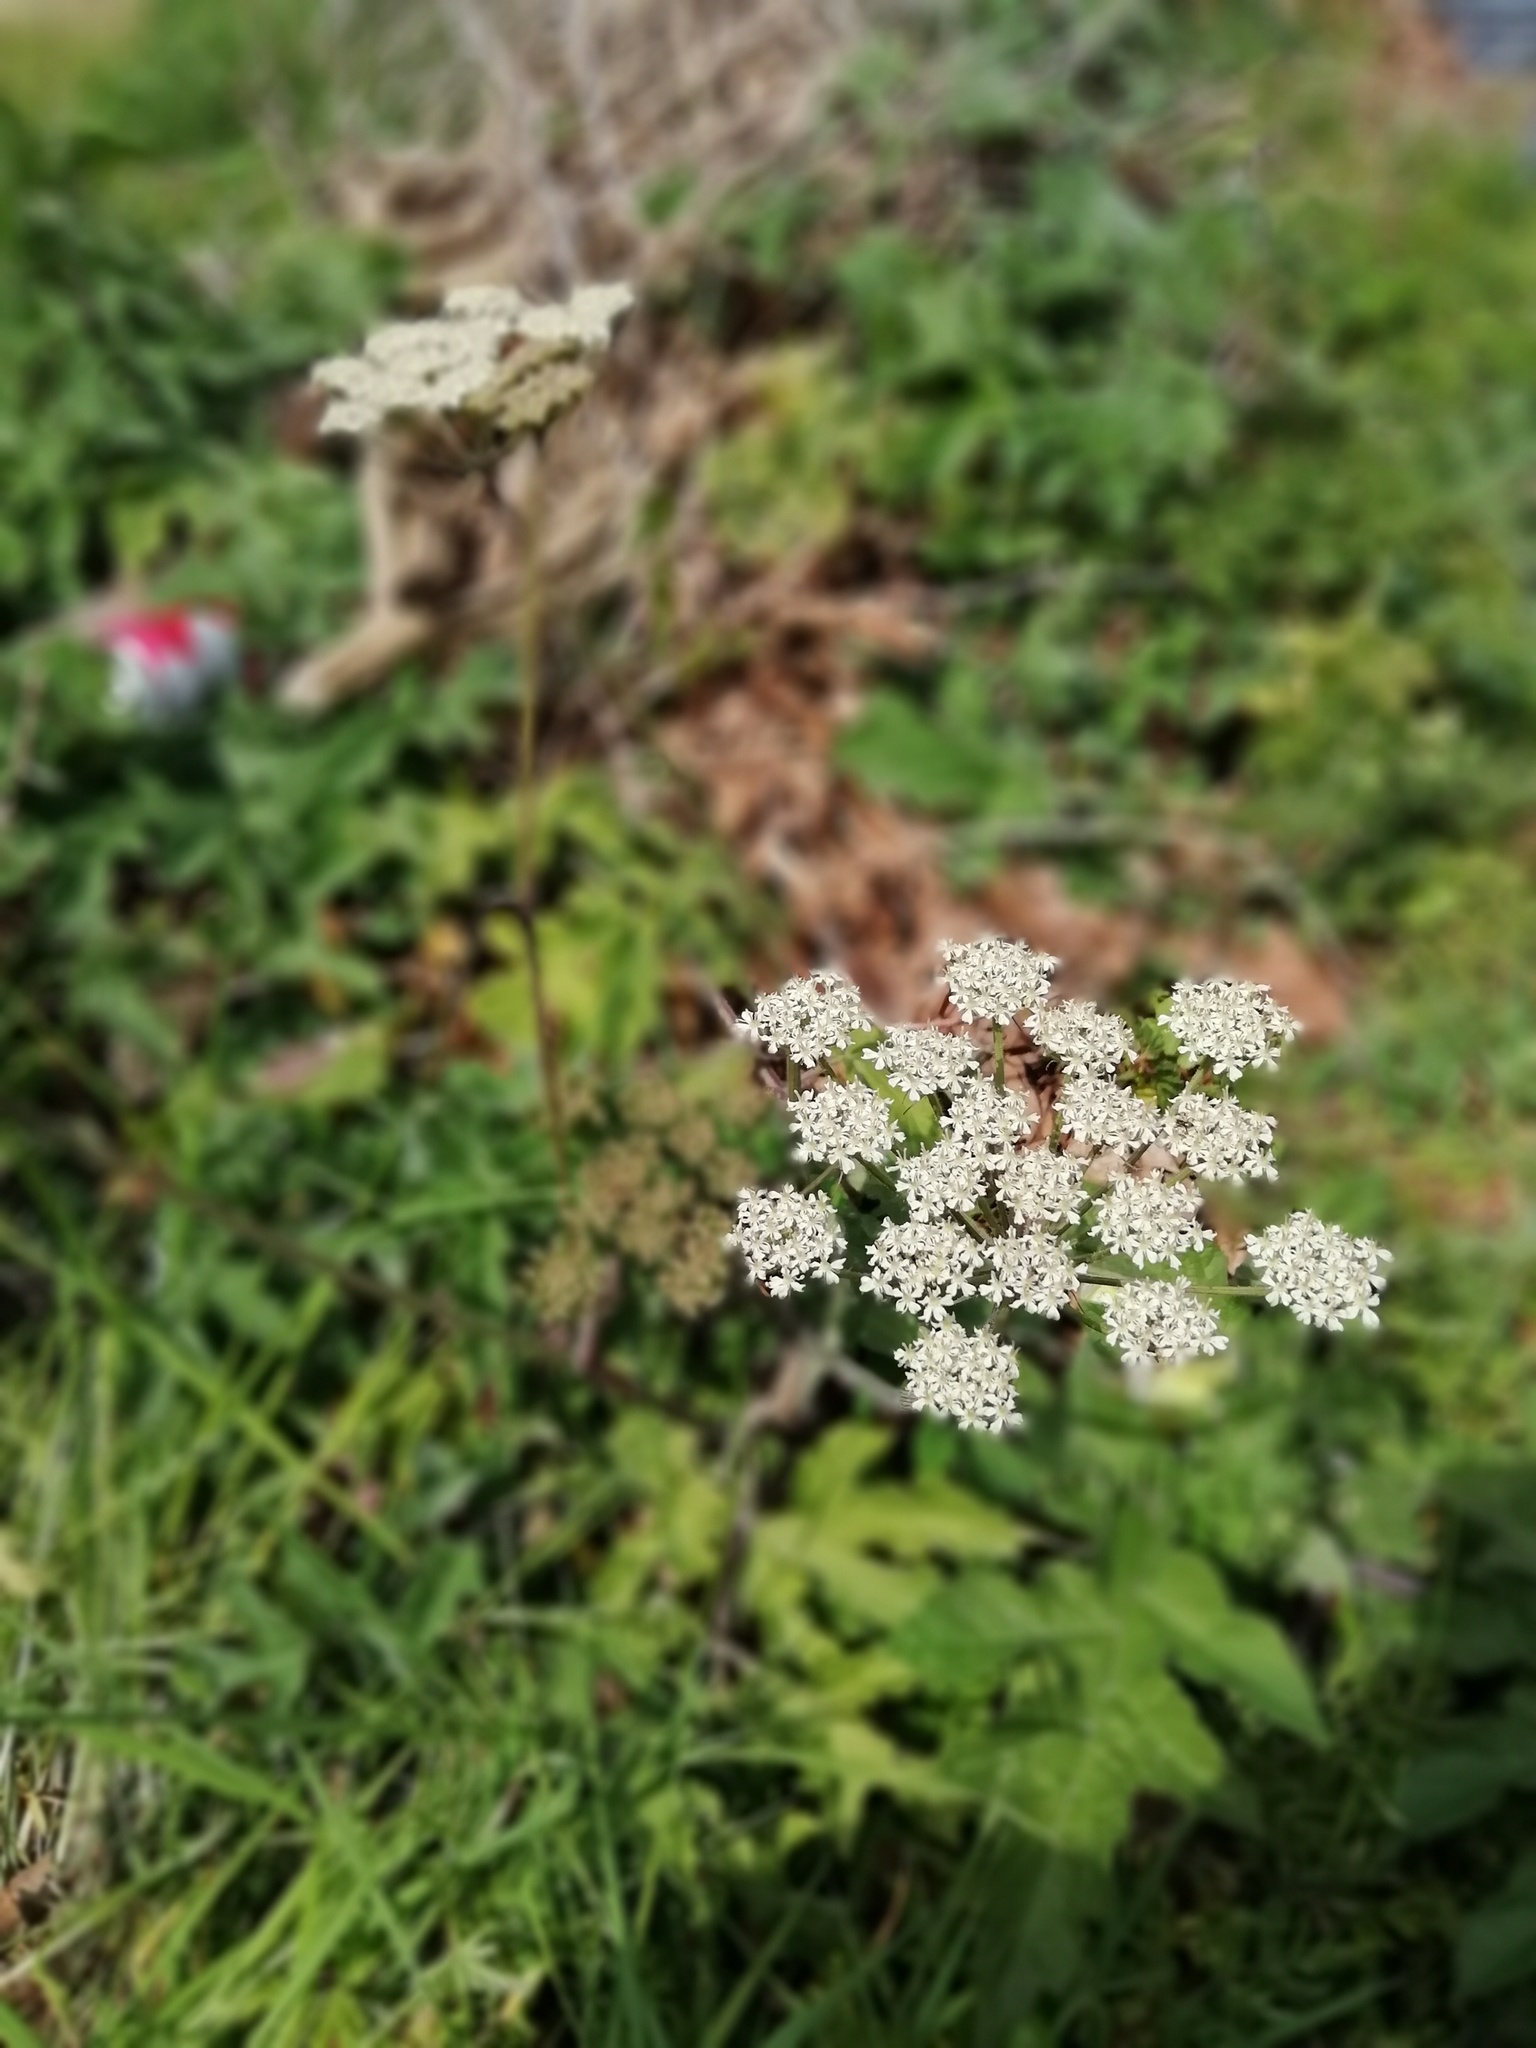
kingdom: Plantae
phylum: Tracheophyta
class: Magnoliopsida
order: Apiales
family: Apiaceae
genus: Heracleum
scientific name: Heracleum sphondylium
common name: Hogweed
